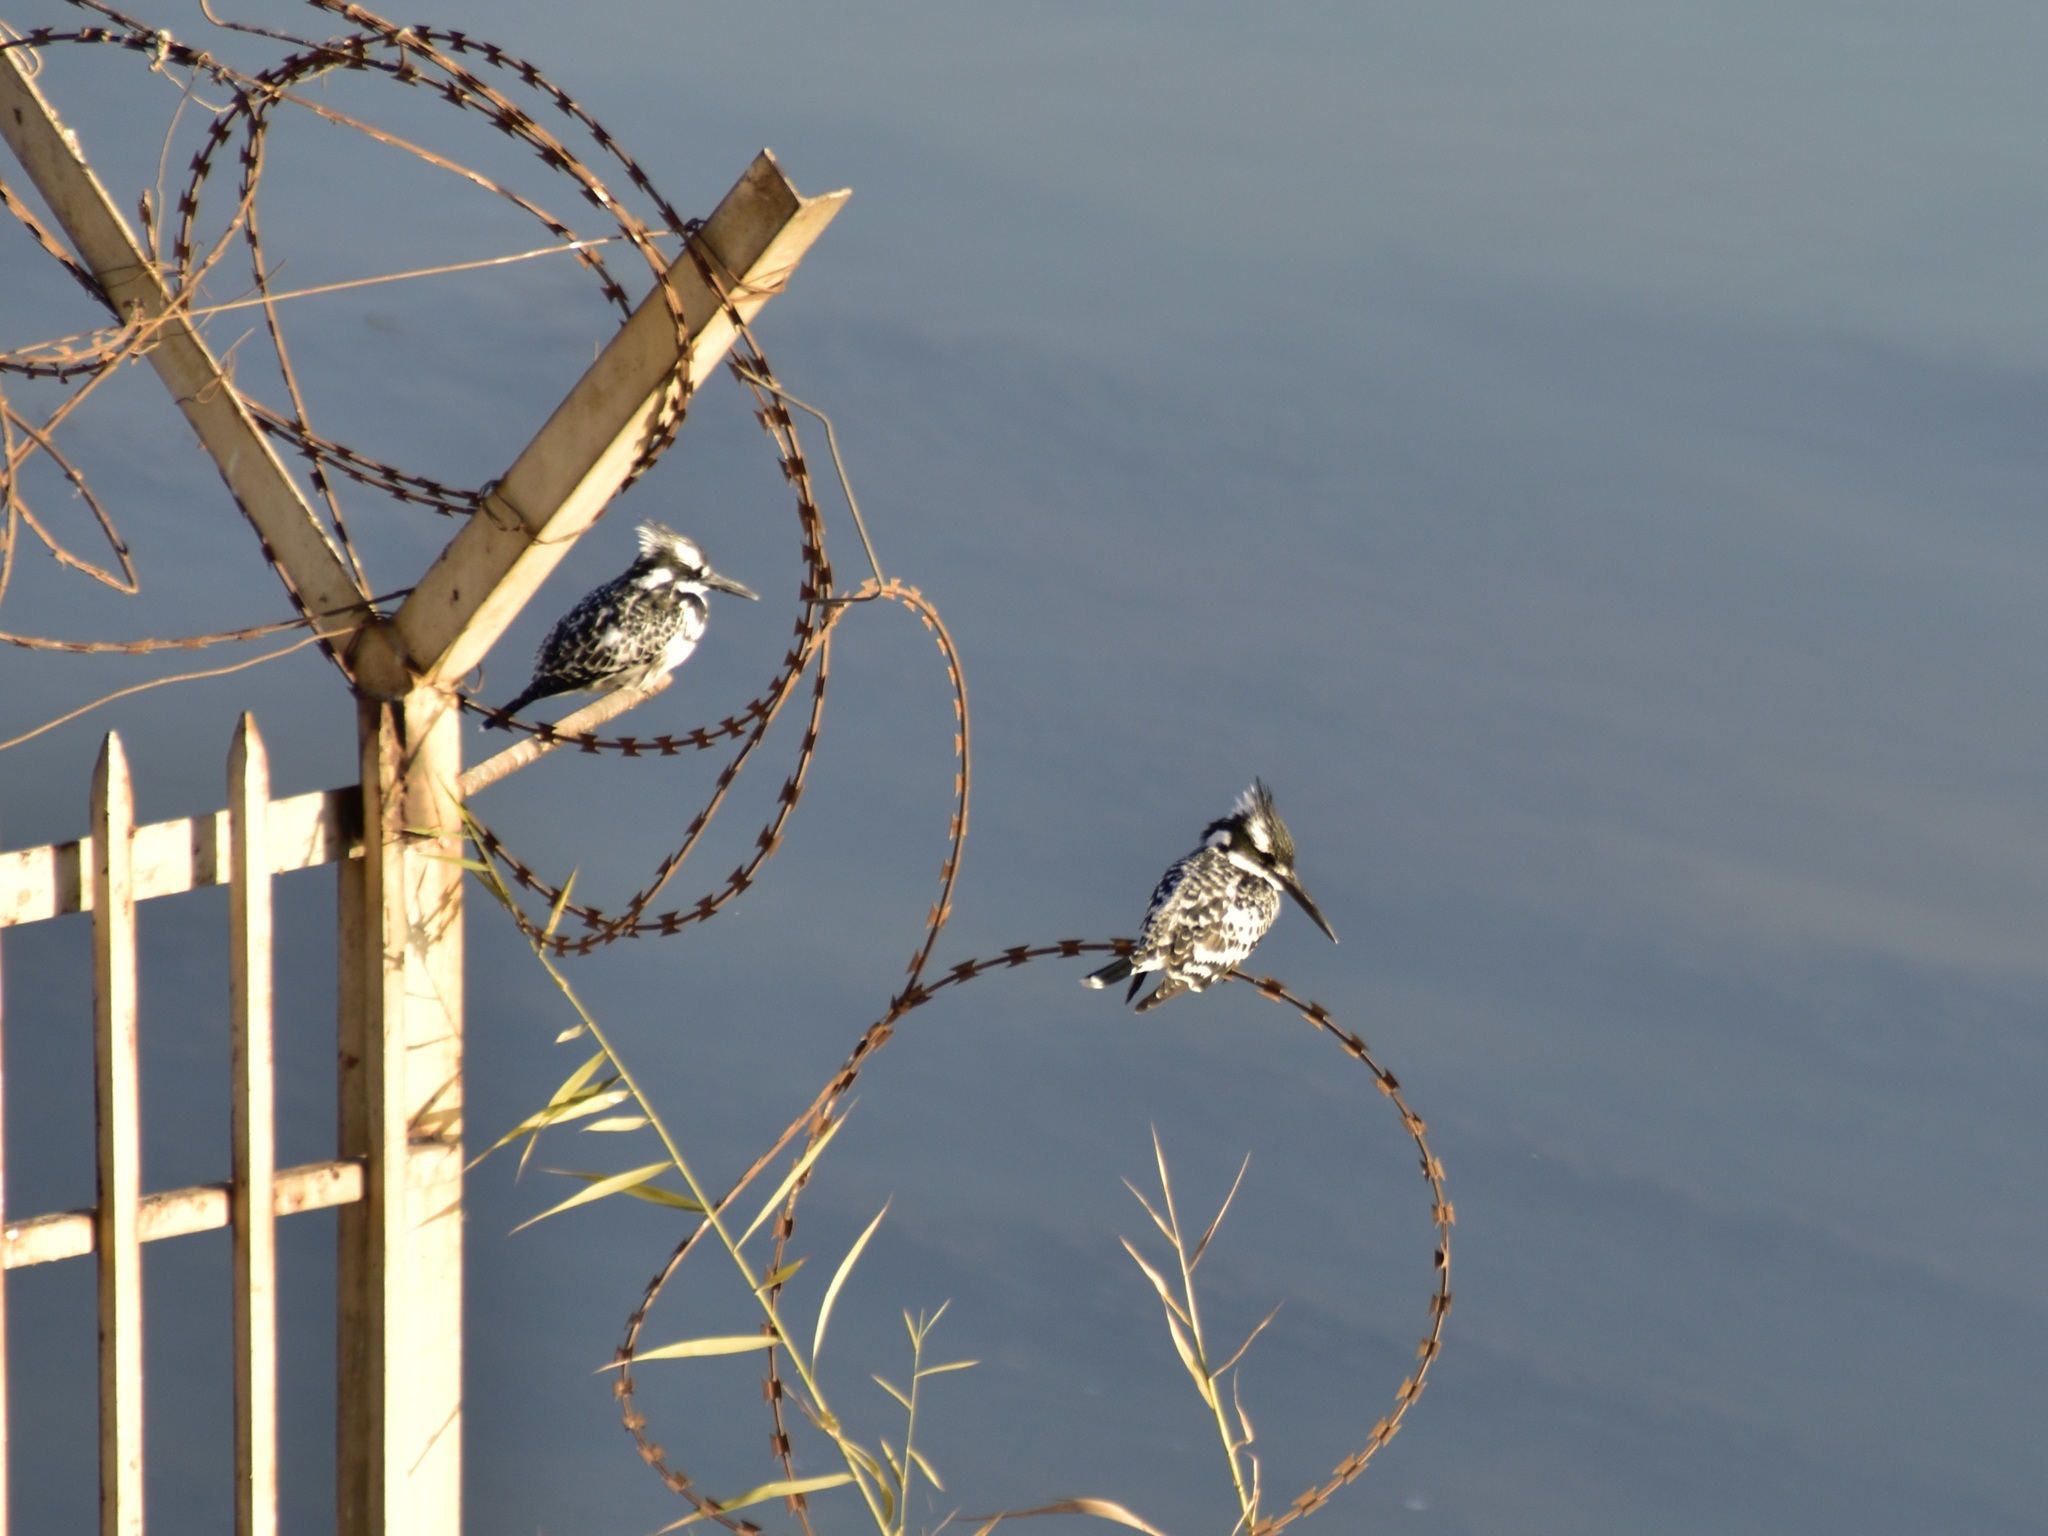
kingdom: Animalia
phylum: Chordata
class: Aves
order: Coraciiformes
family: Alcedinidae
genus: Ceryle
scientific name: Ceryle rudis
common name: Pied kingfisher
